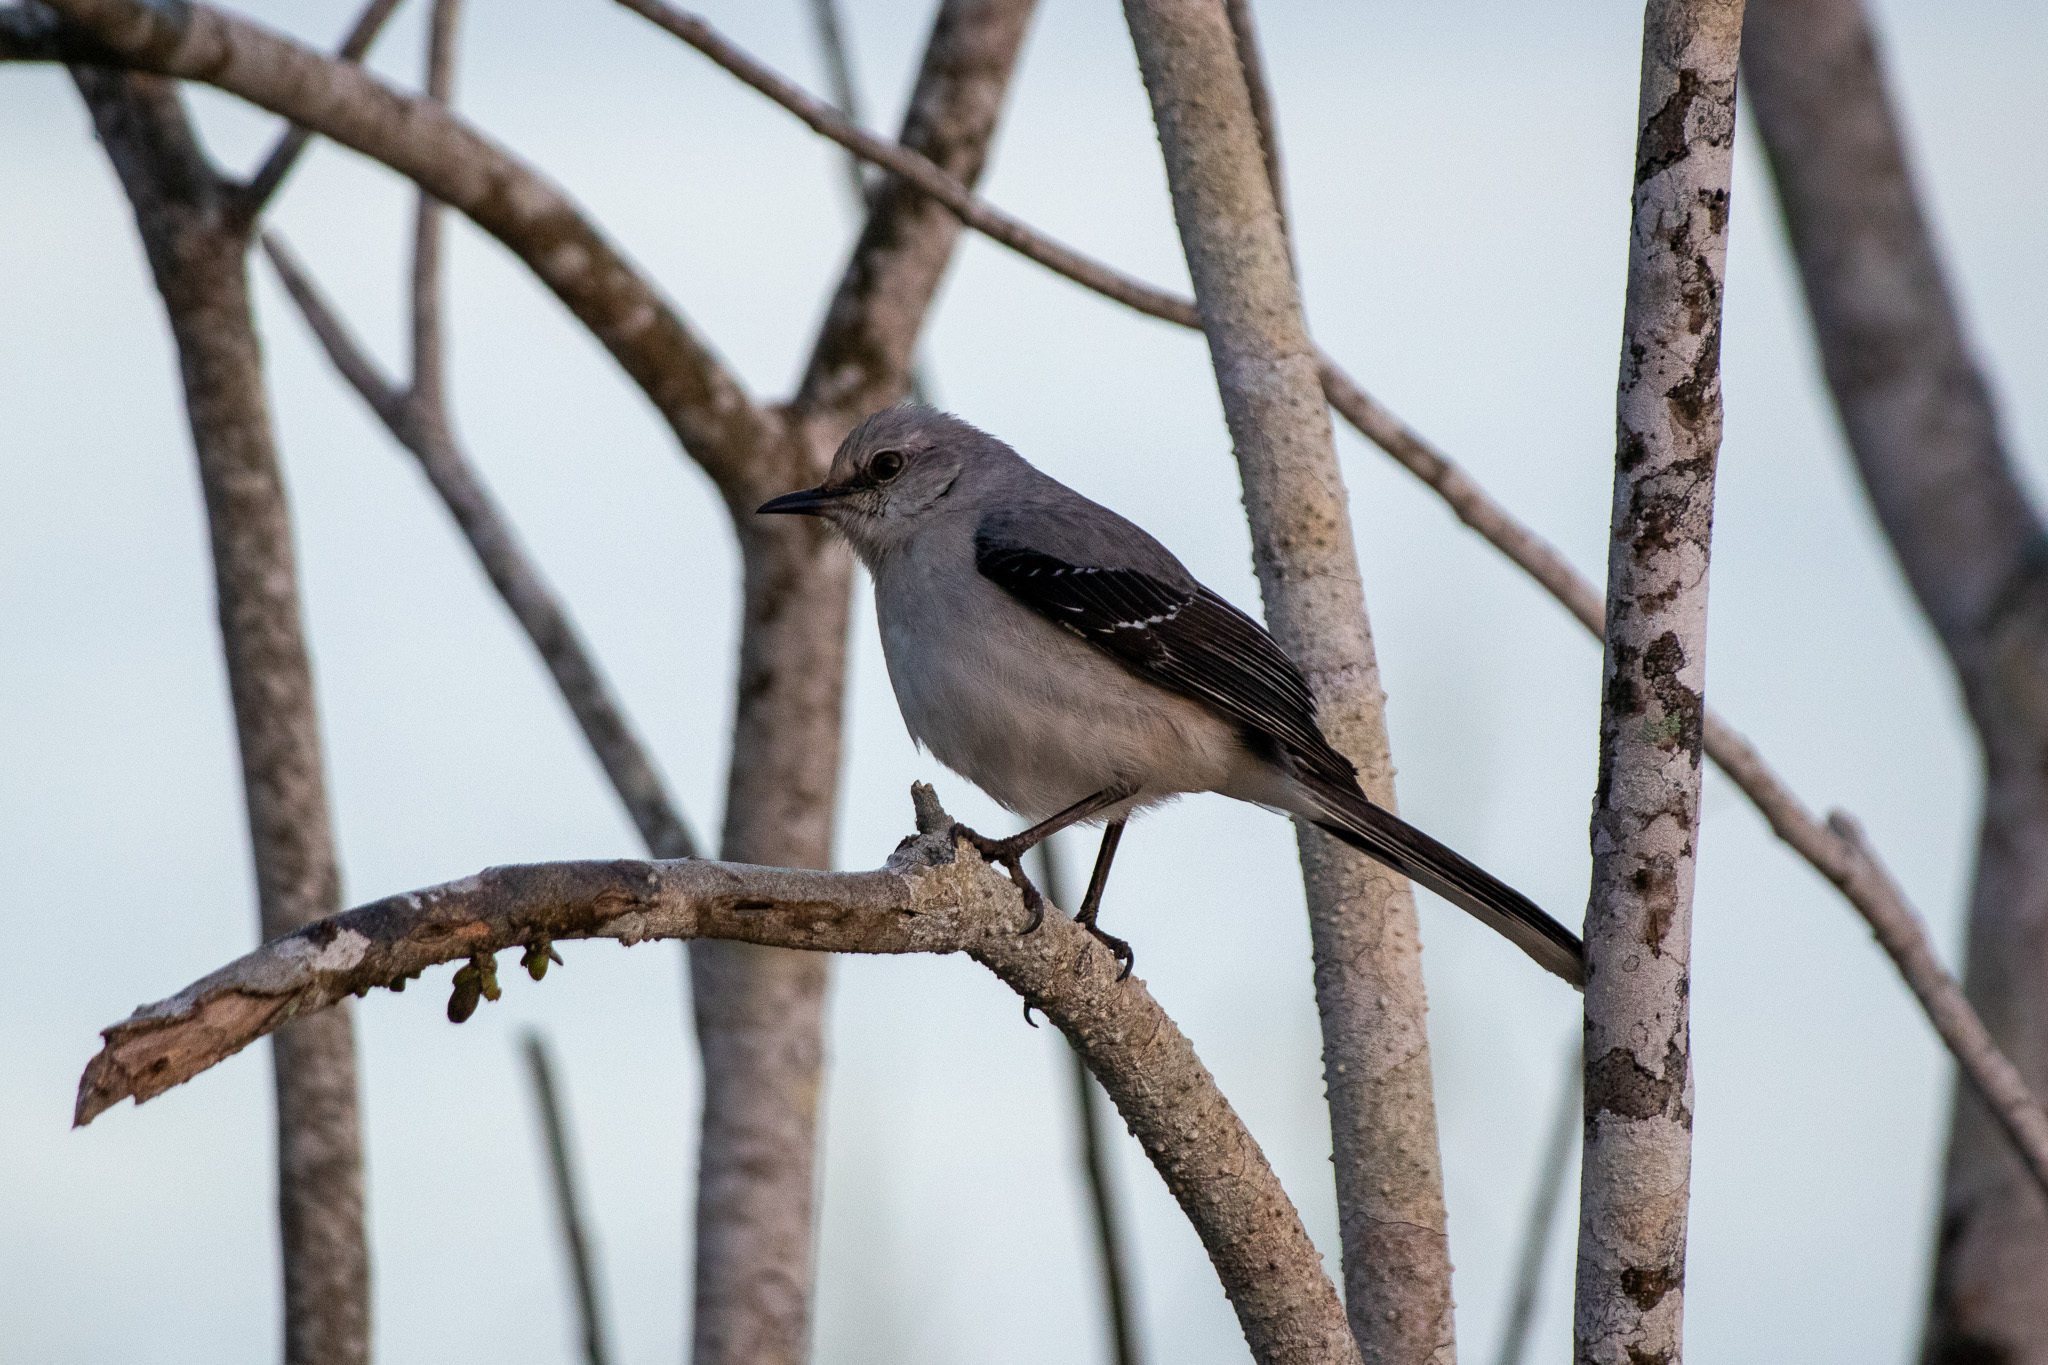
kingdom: Animalia
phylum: Chordata
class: Aves
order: Passeriformes
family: Mimidae
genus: Mimus
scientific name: Mimus gilvus
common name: Tropical mockingbird
